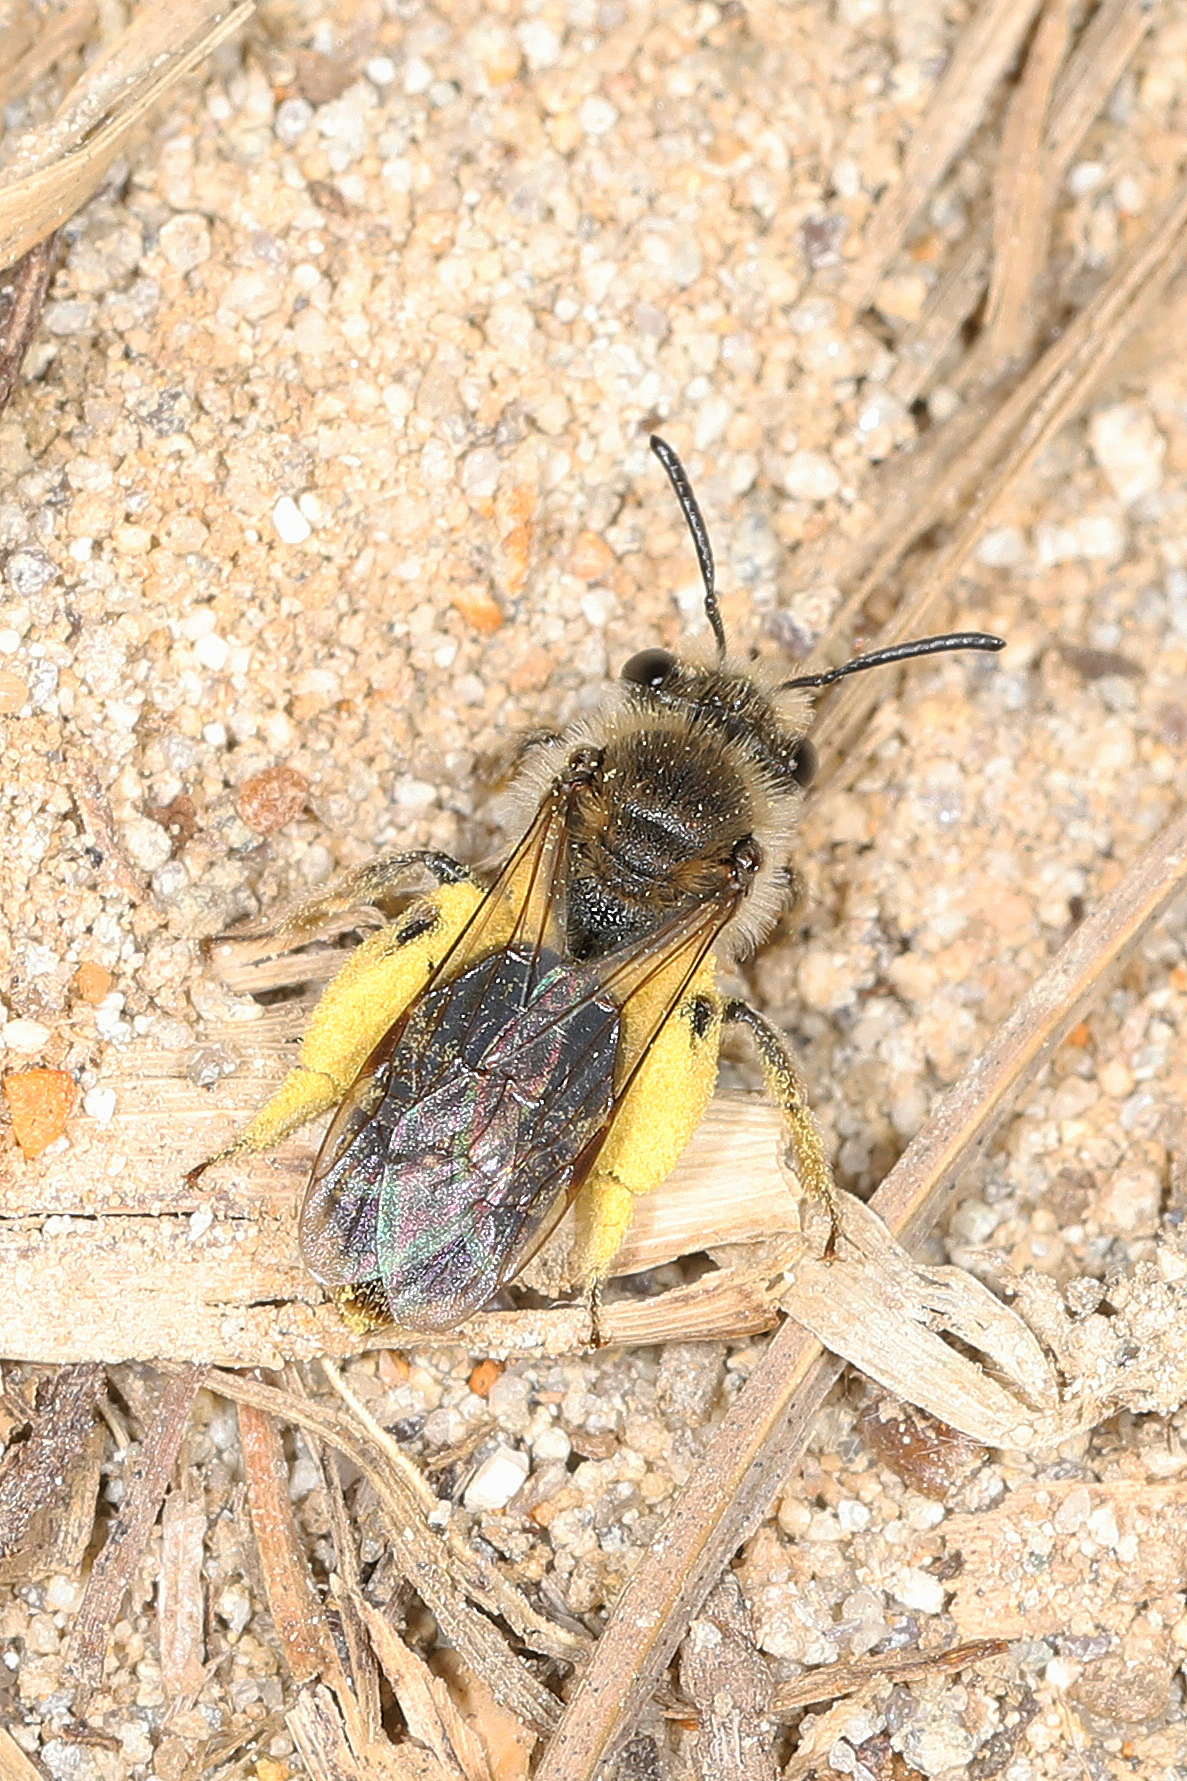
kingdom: Animalia
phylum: Arthropoda
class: Insecta
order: Hymenoptera
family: Andrenidae
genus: Andrena
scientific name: Andrena fenningeri
